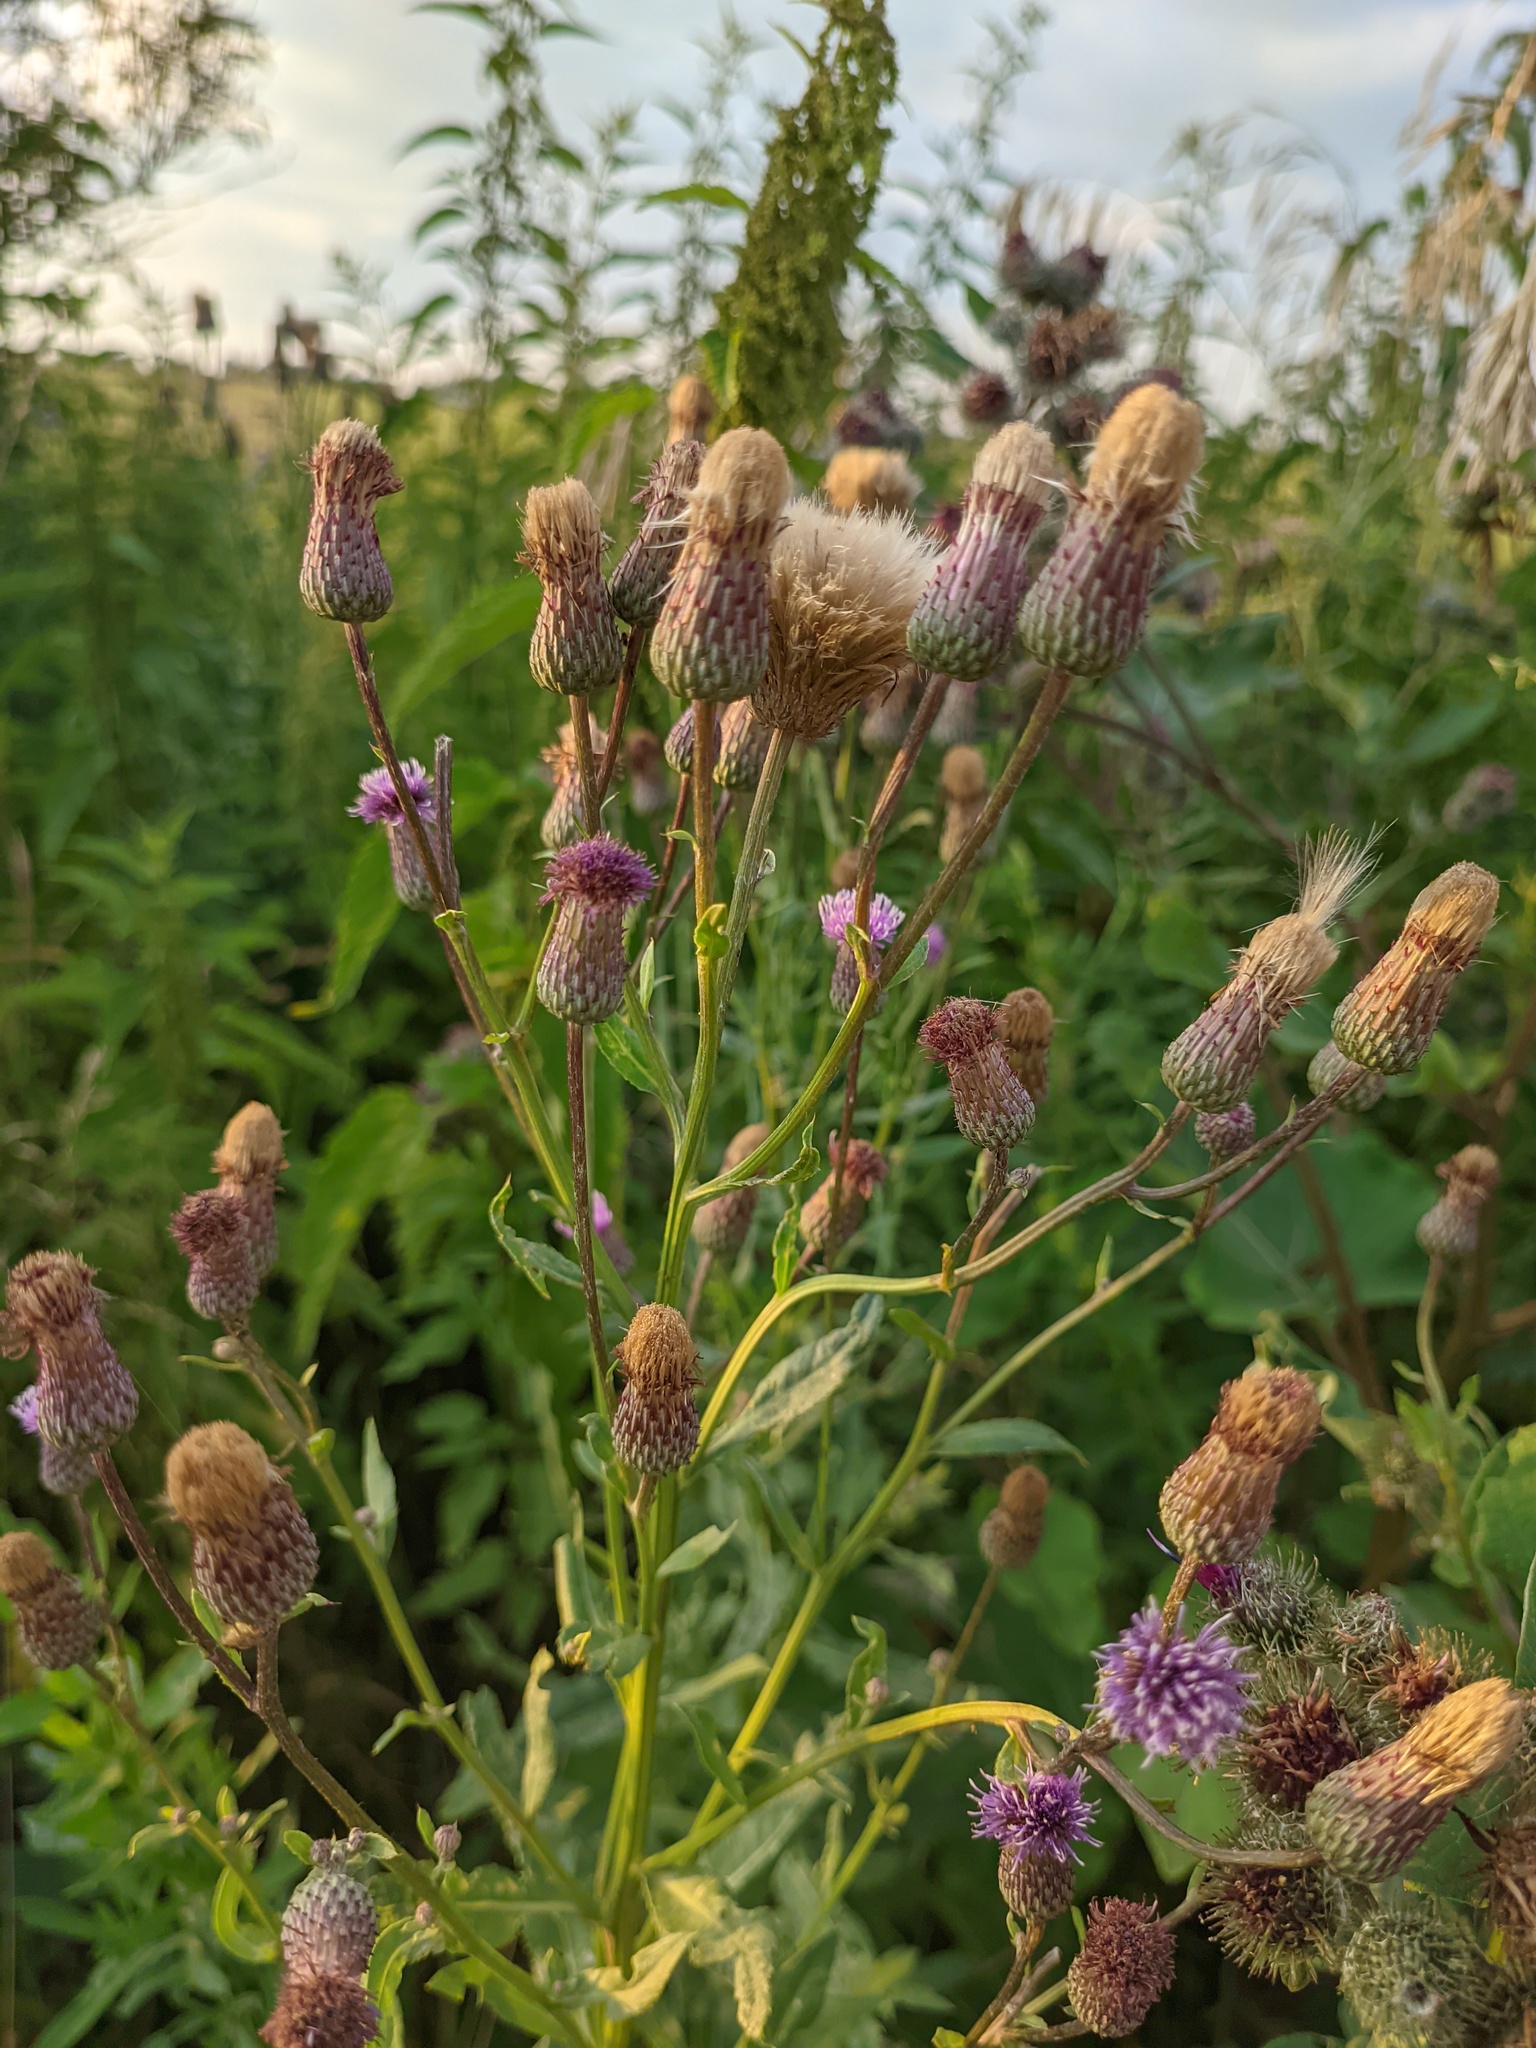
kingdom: Plantae
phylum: Tracheophyta
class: Magnoliopsida
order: Asterales
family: Asteraceae
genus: Cirsium
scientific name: Cirsium arvense
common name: Creeping thistle
